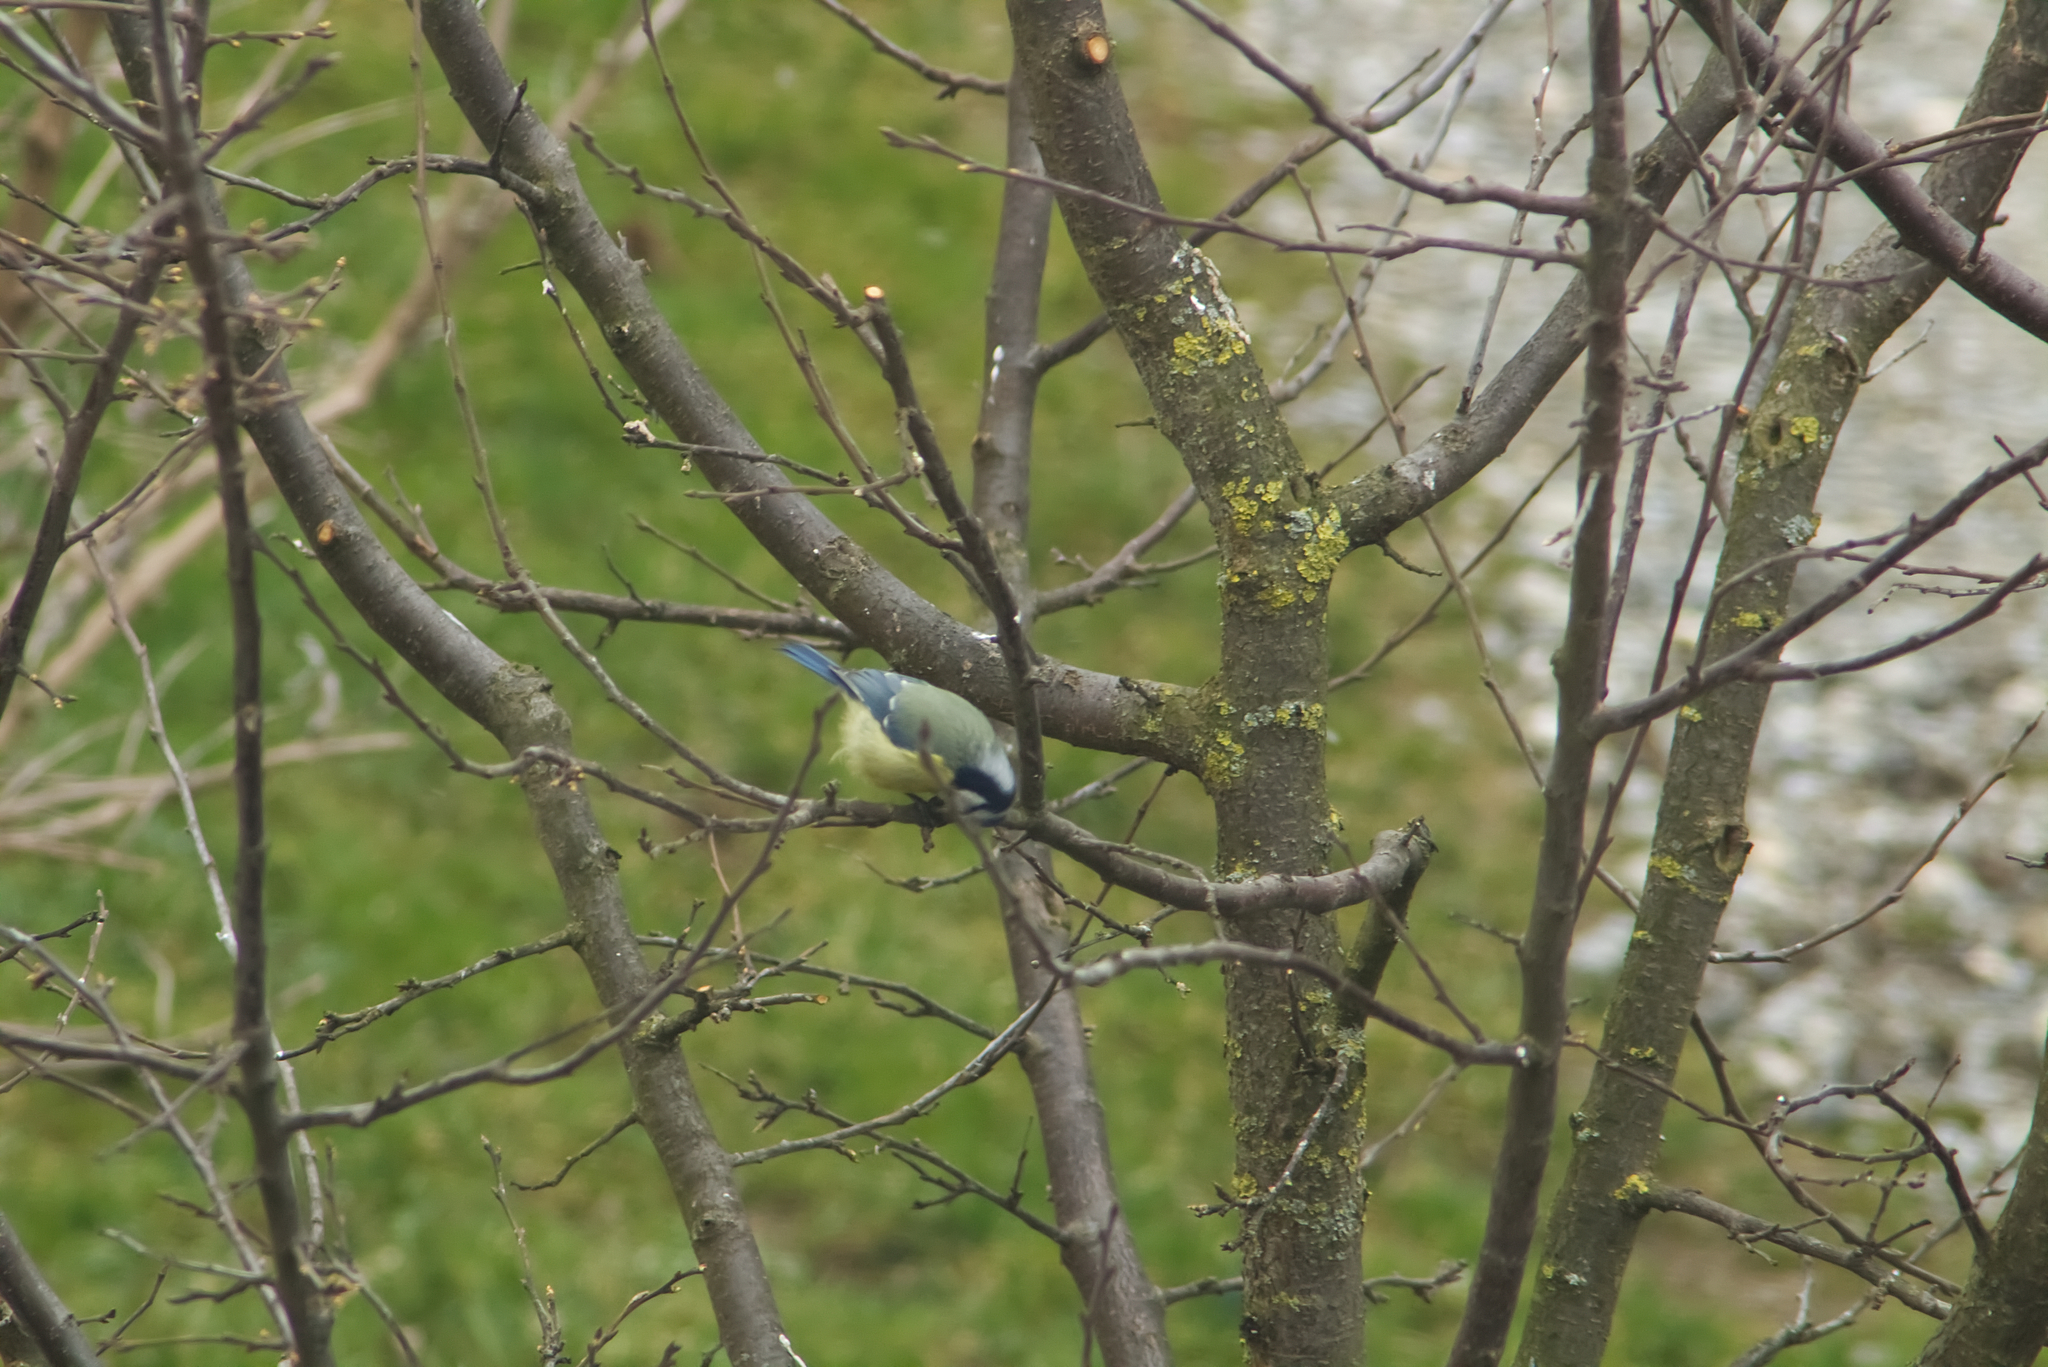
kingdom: Animalia
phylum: Chordata
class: Aves
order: Passeriformes
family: Paridae
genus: Cyanistes
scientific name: Cyanistes caeruleus
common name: Eurasian blue tit
